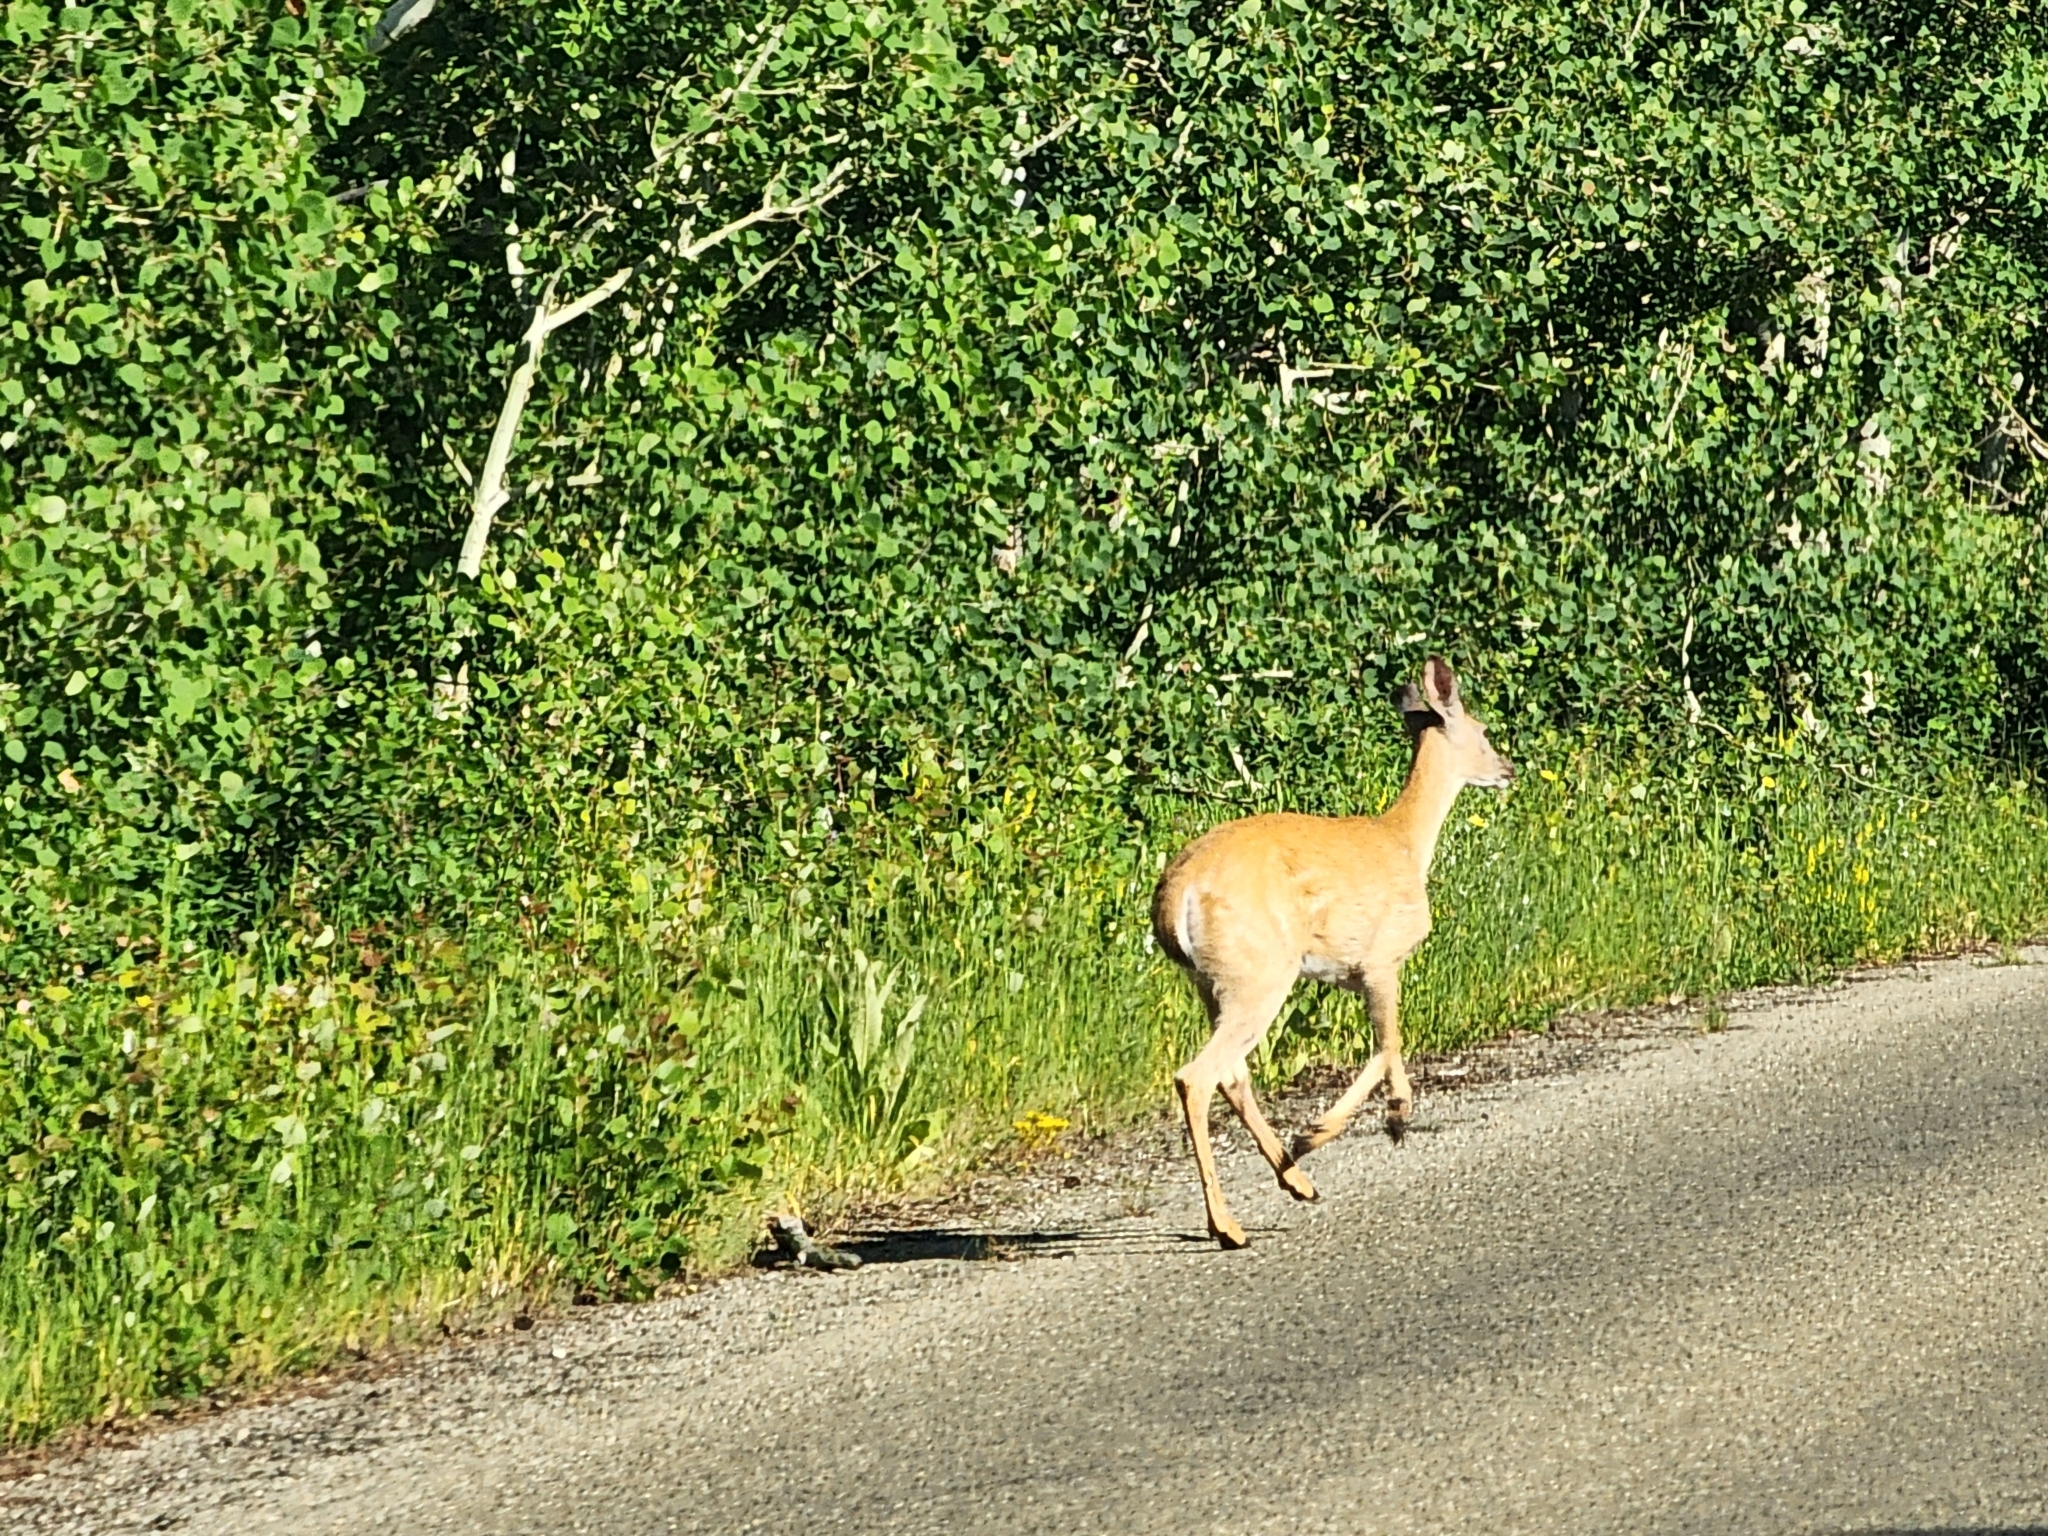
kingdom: Animalia
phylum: Chordata
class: Mammalia
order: Artiodactyla
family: Cervidae
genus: Odocoileus
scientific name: Odocoileus hemionus
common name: Mule deer
